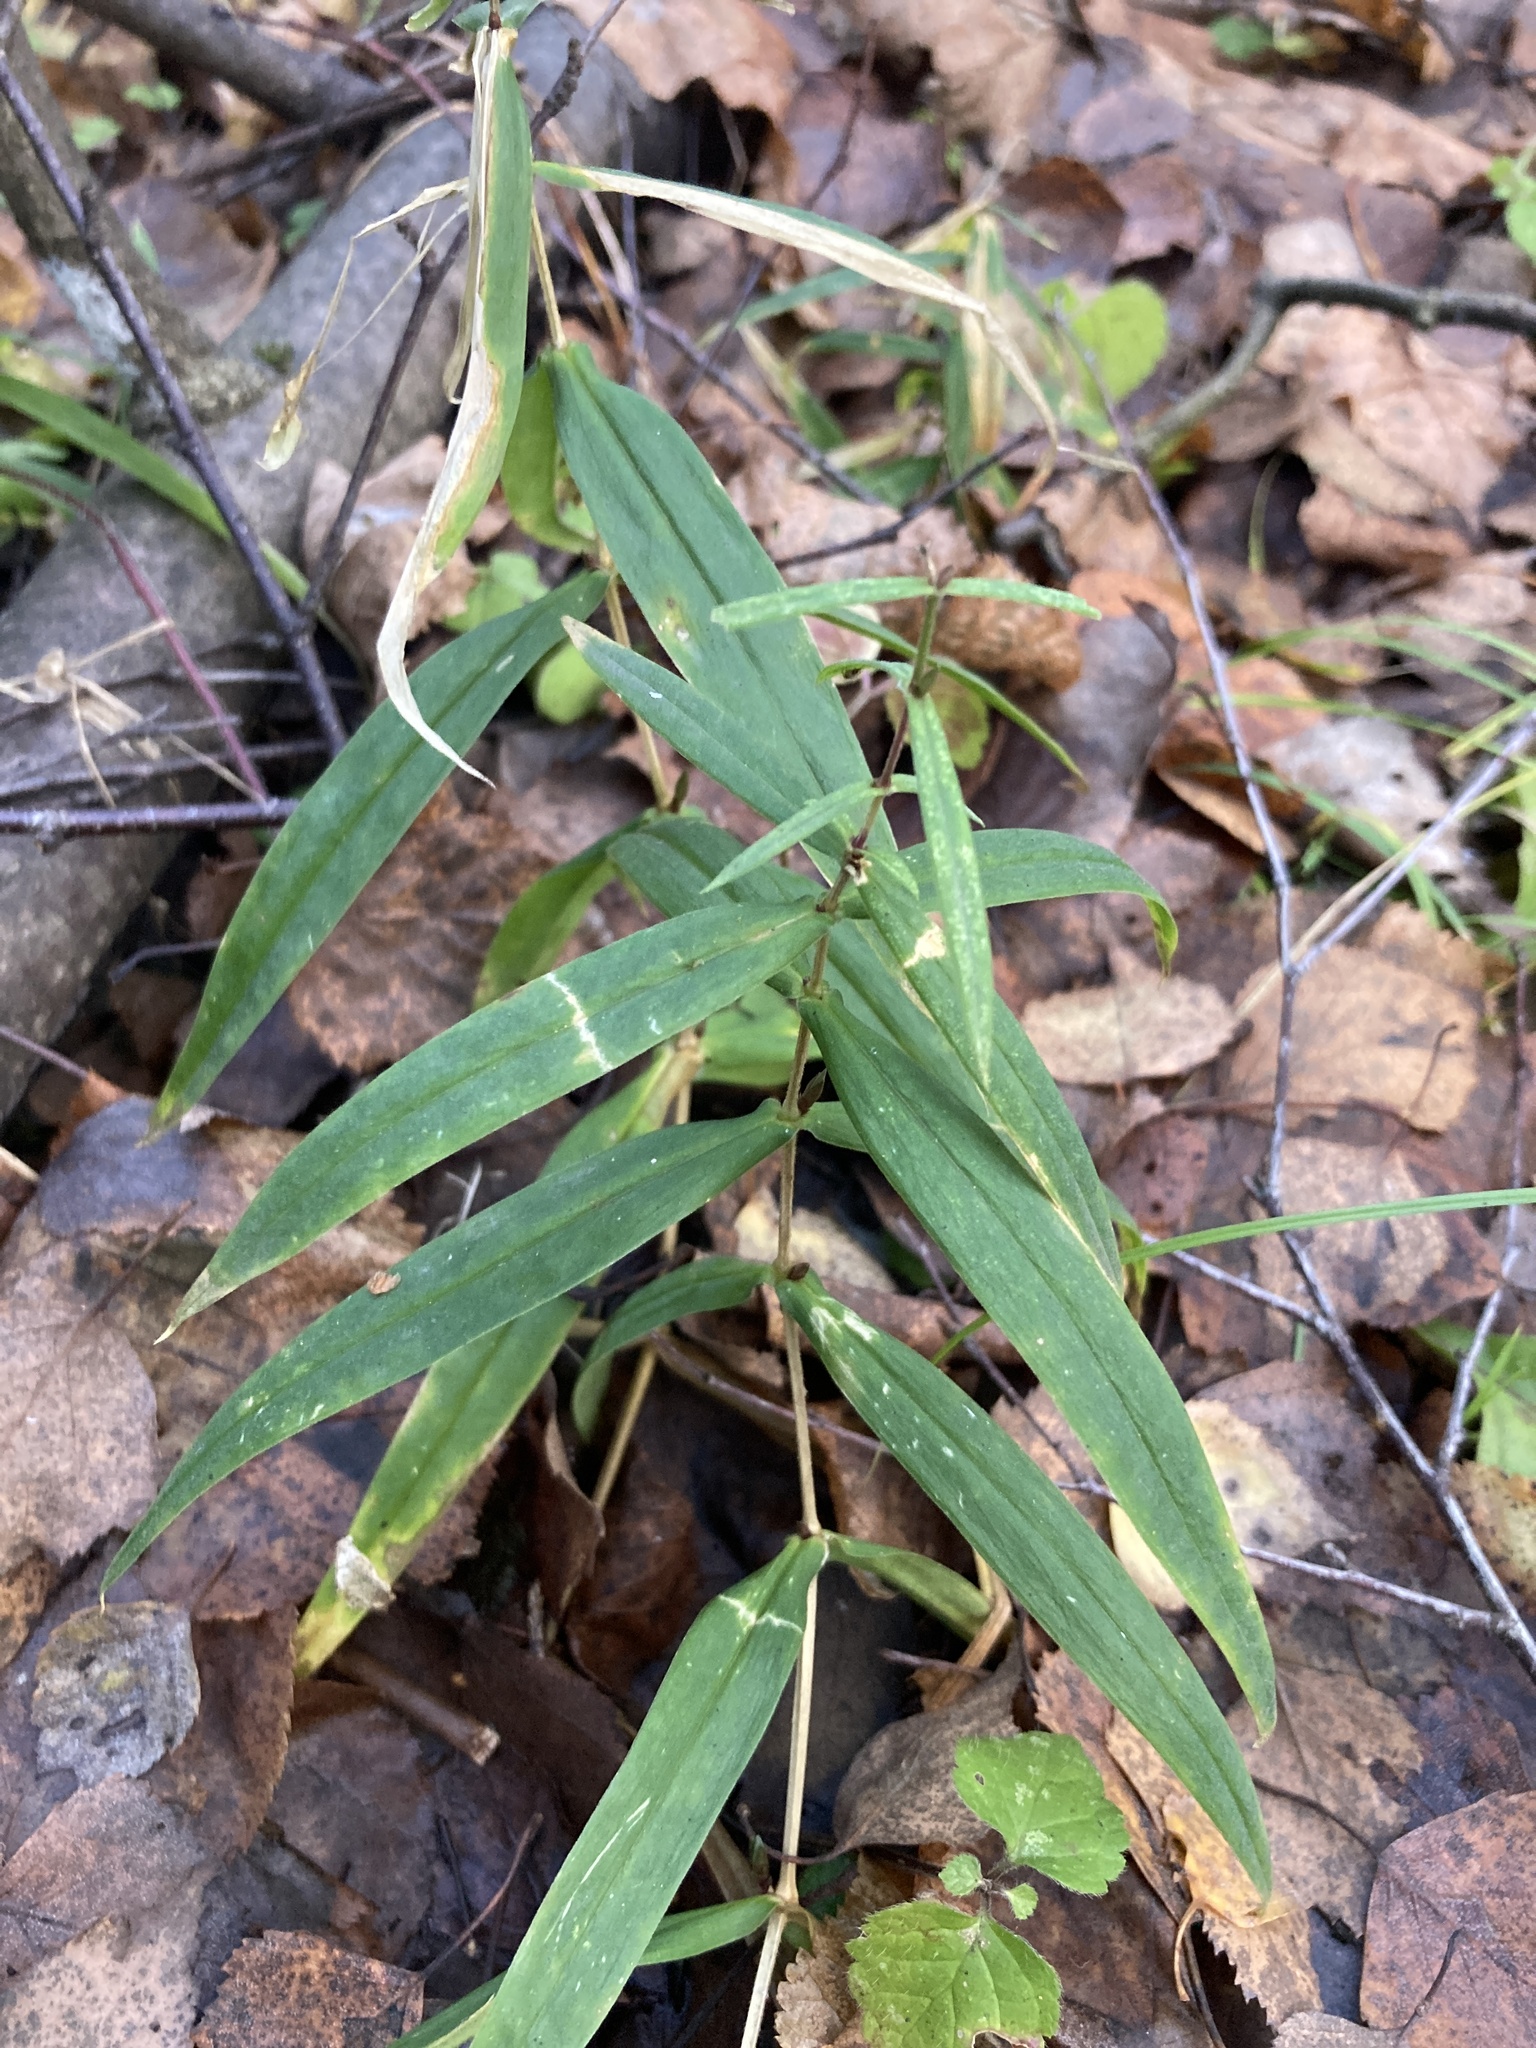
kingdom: Plantae
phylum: Tracheophyta
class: Magnoliopsida
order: Caryophyllales
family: Caryophyllaceae
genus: Rabelera
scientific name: Rabelera holostea
